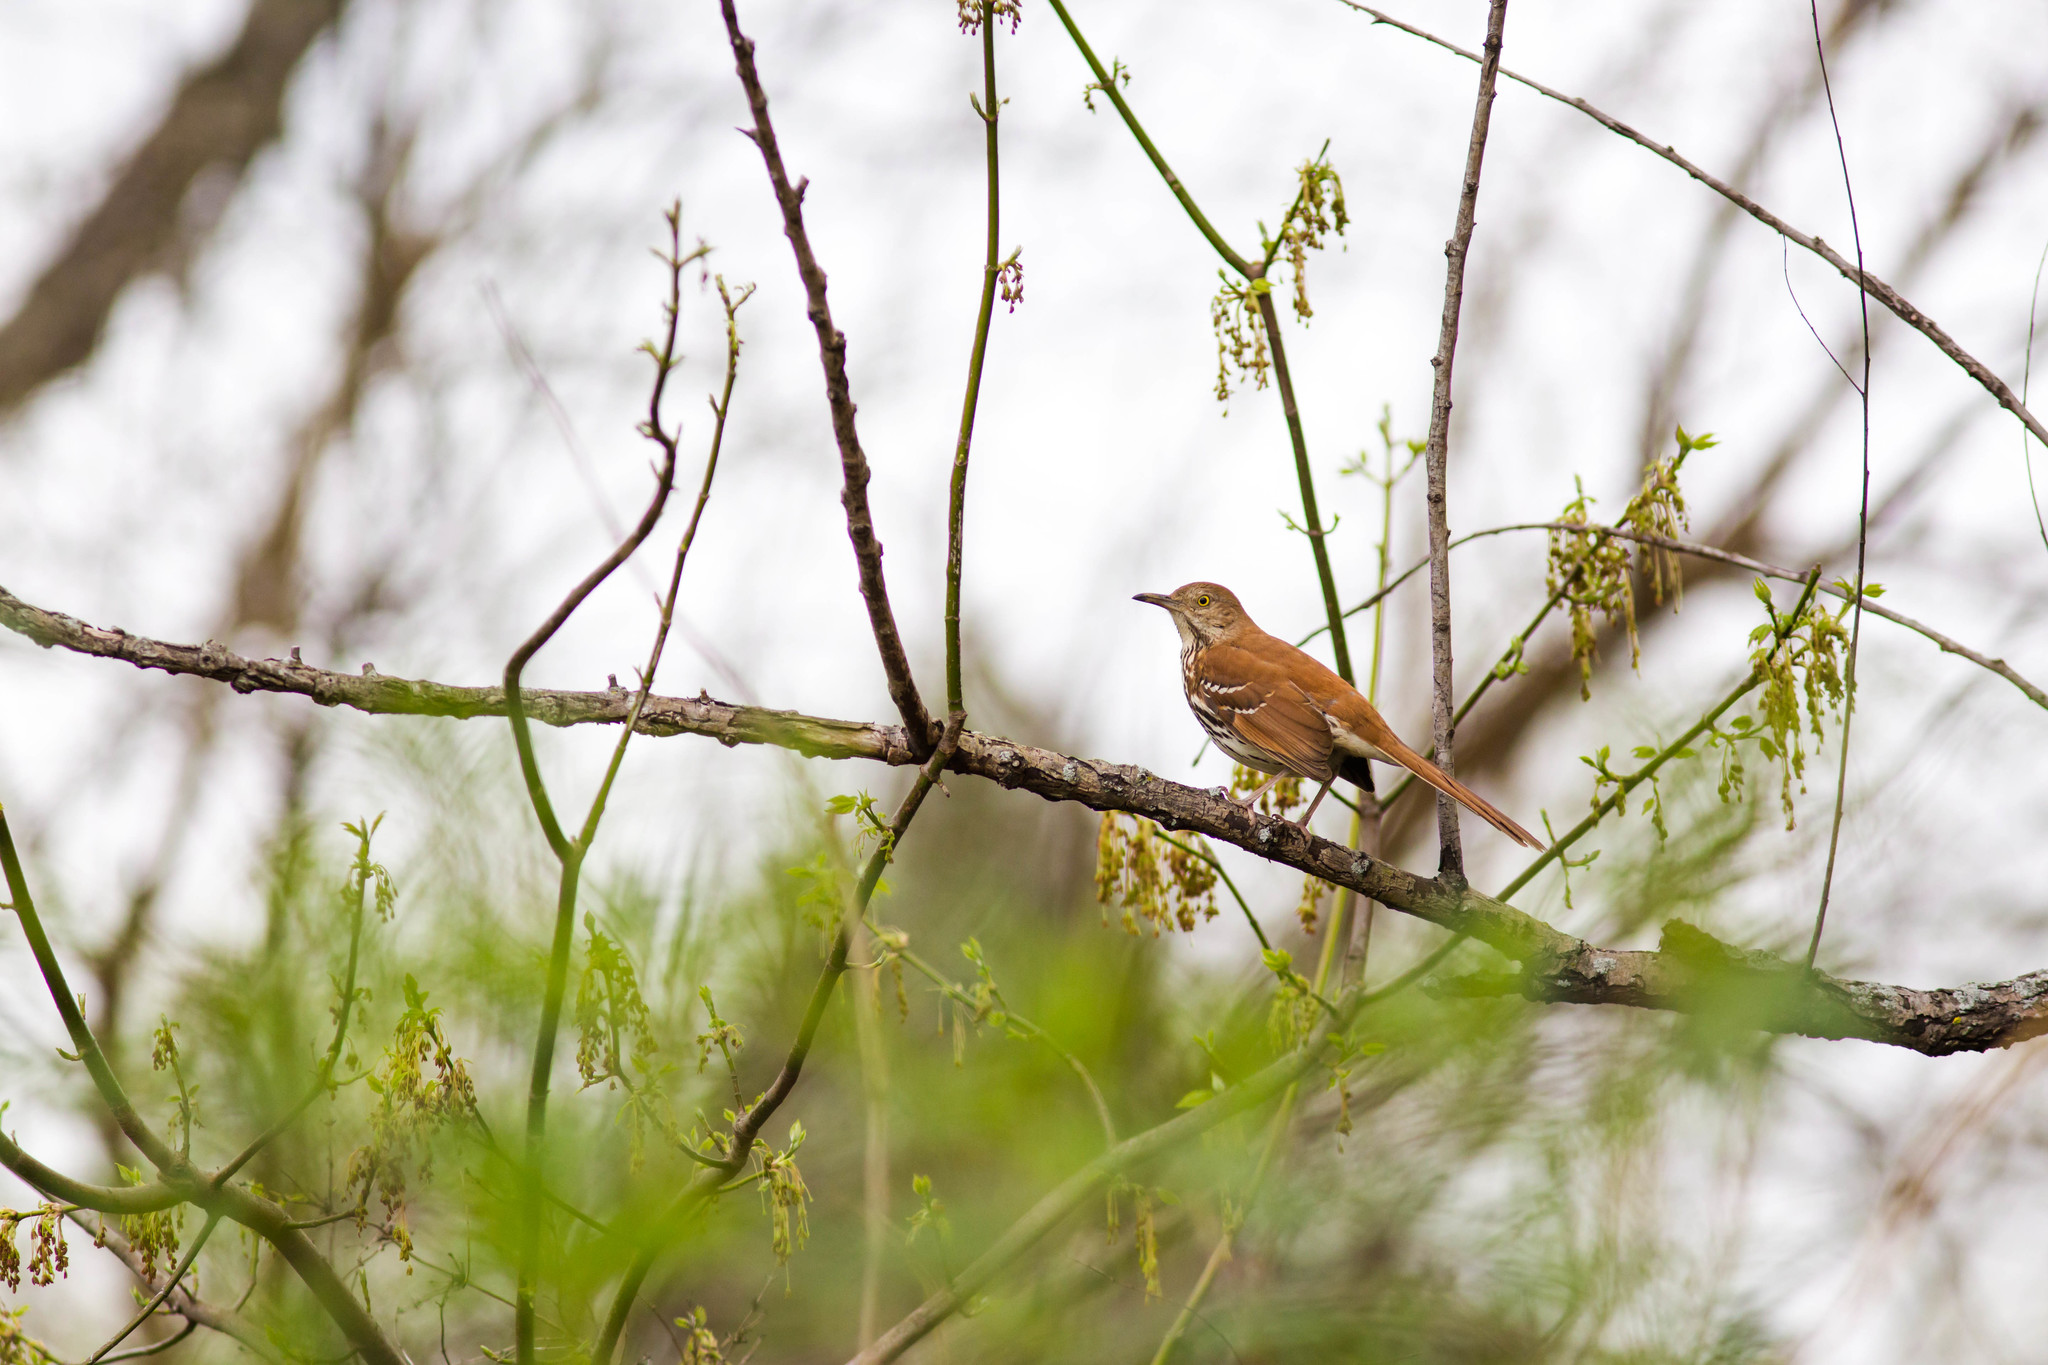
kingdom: Animalia
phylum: Chordata
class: Aves
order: Passeriformes
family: Mimidae
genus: Toxostoma
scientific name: Toxostoma rufum
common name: Brown thrasher
